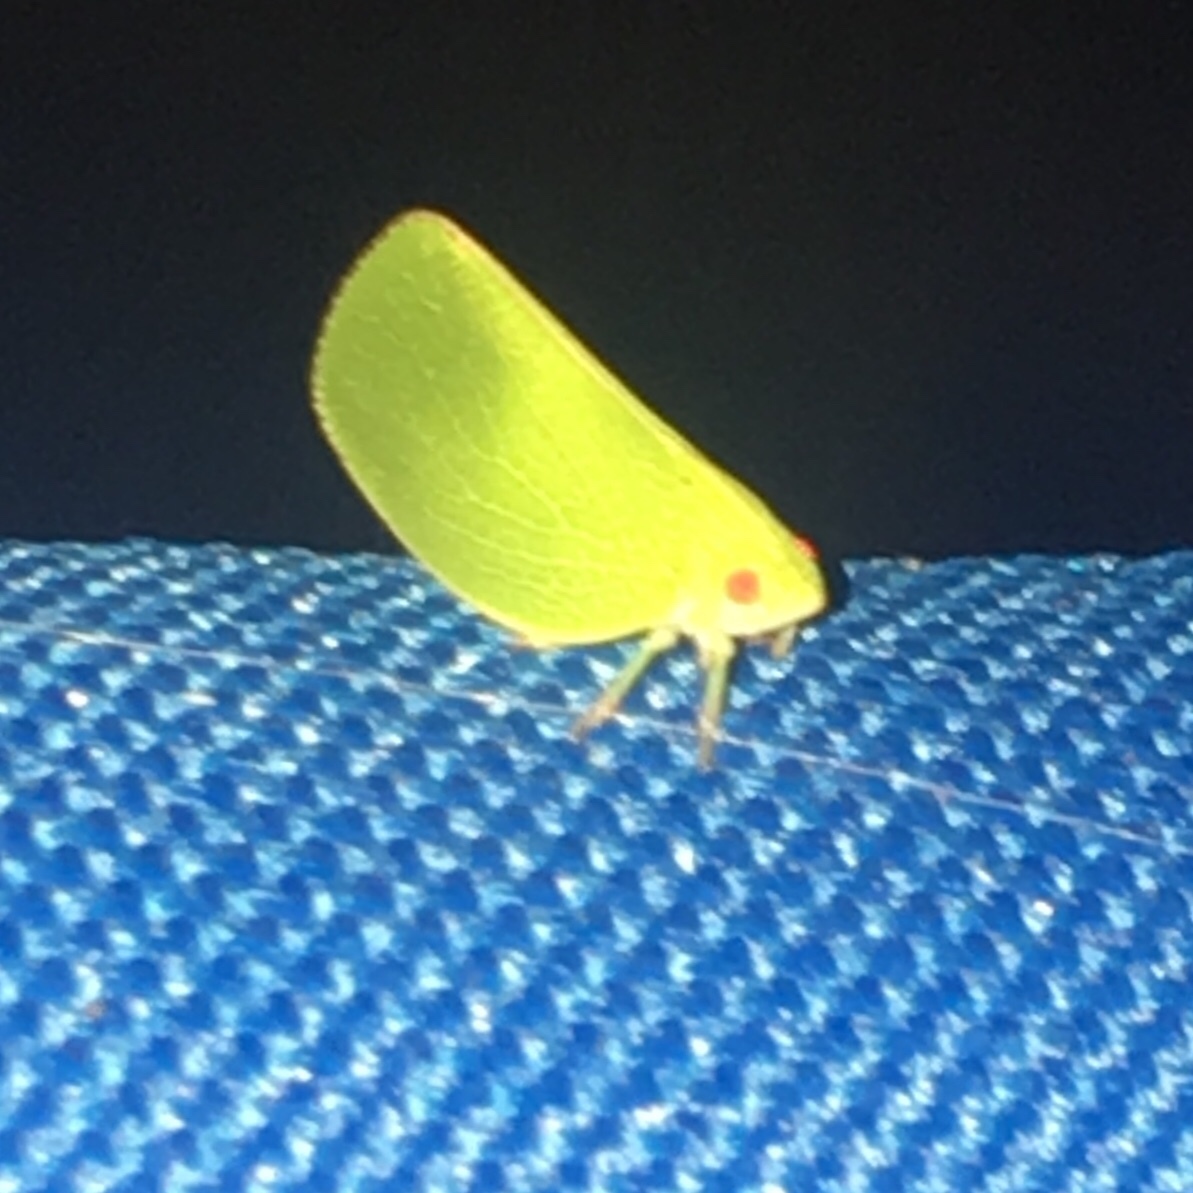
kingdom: Animalia
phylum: Arthropoda
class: Insecta
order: Hemiptera
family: Acanaloniidae
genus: Acanalonia
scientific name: Acanalonia conica
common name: Green cone-headed planthopper
